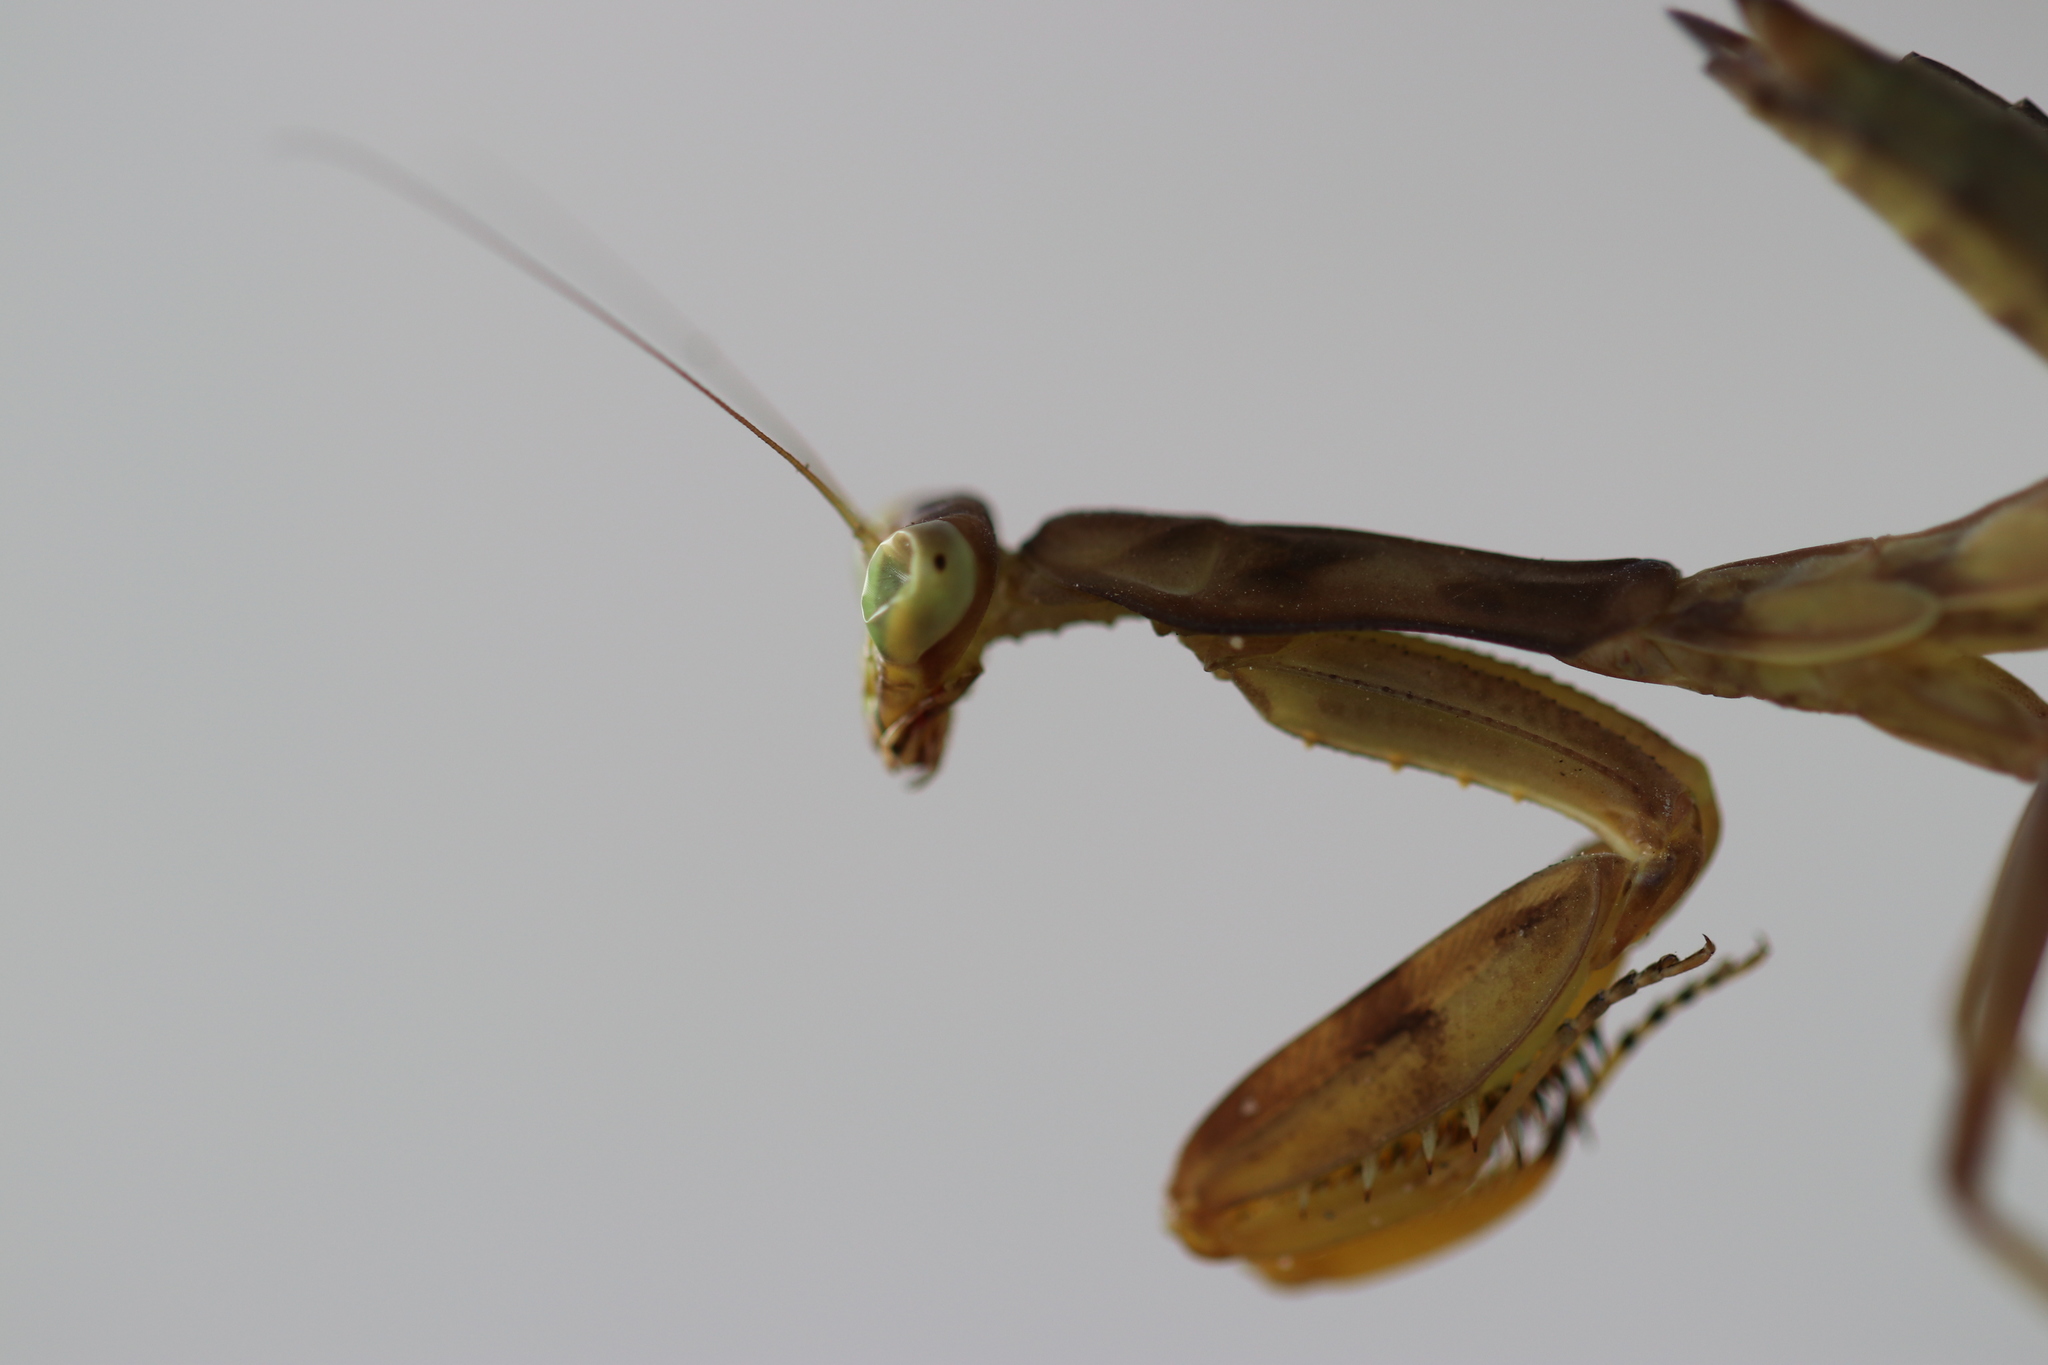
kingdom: Animalia
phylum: Arthropoda
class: Insecta
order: Mantodea
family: Mantidae
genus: Hierodula
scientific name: Hierodula transcaucasica
